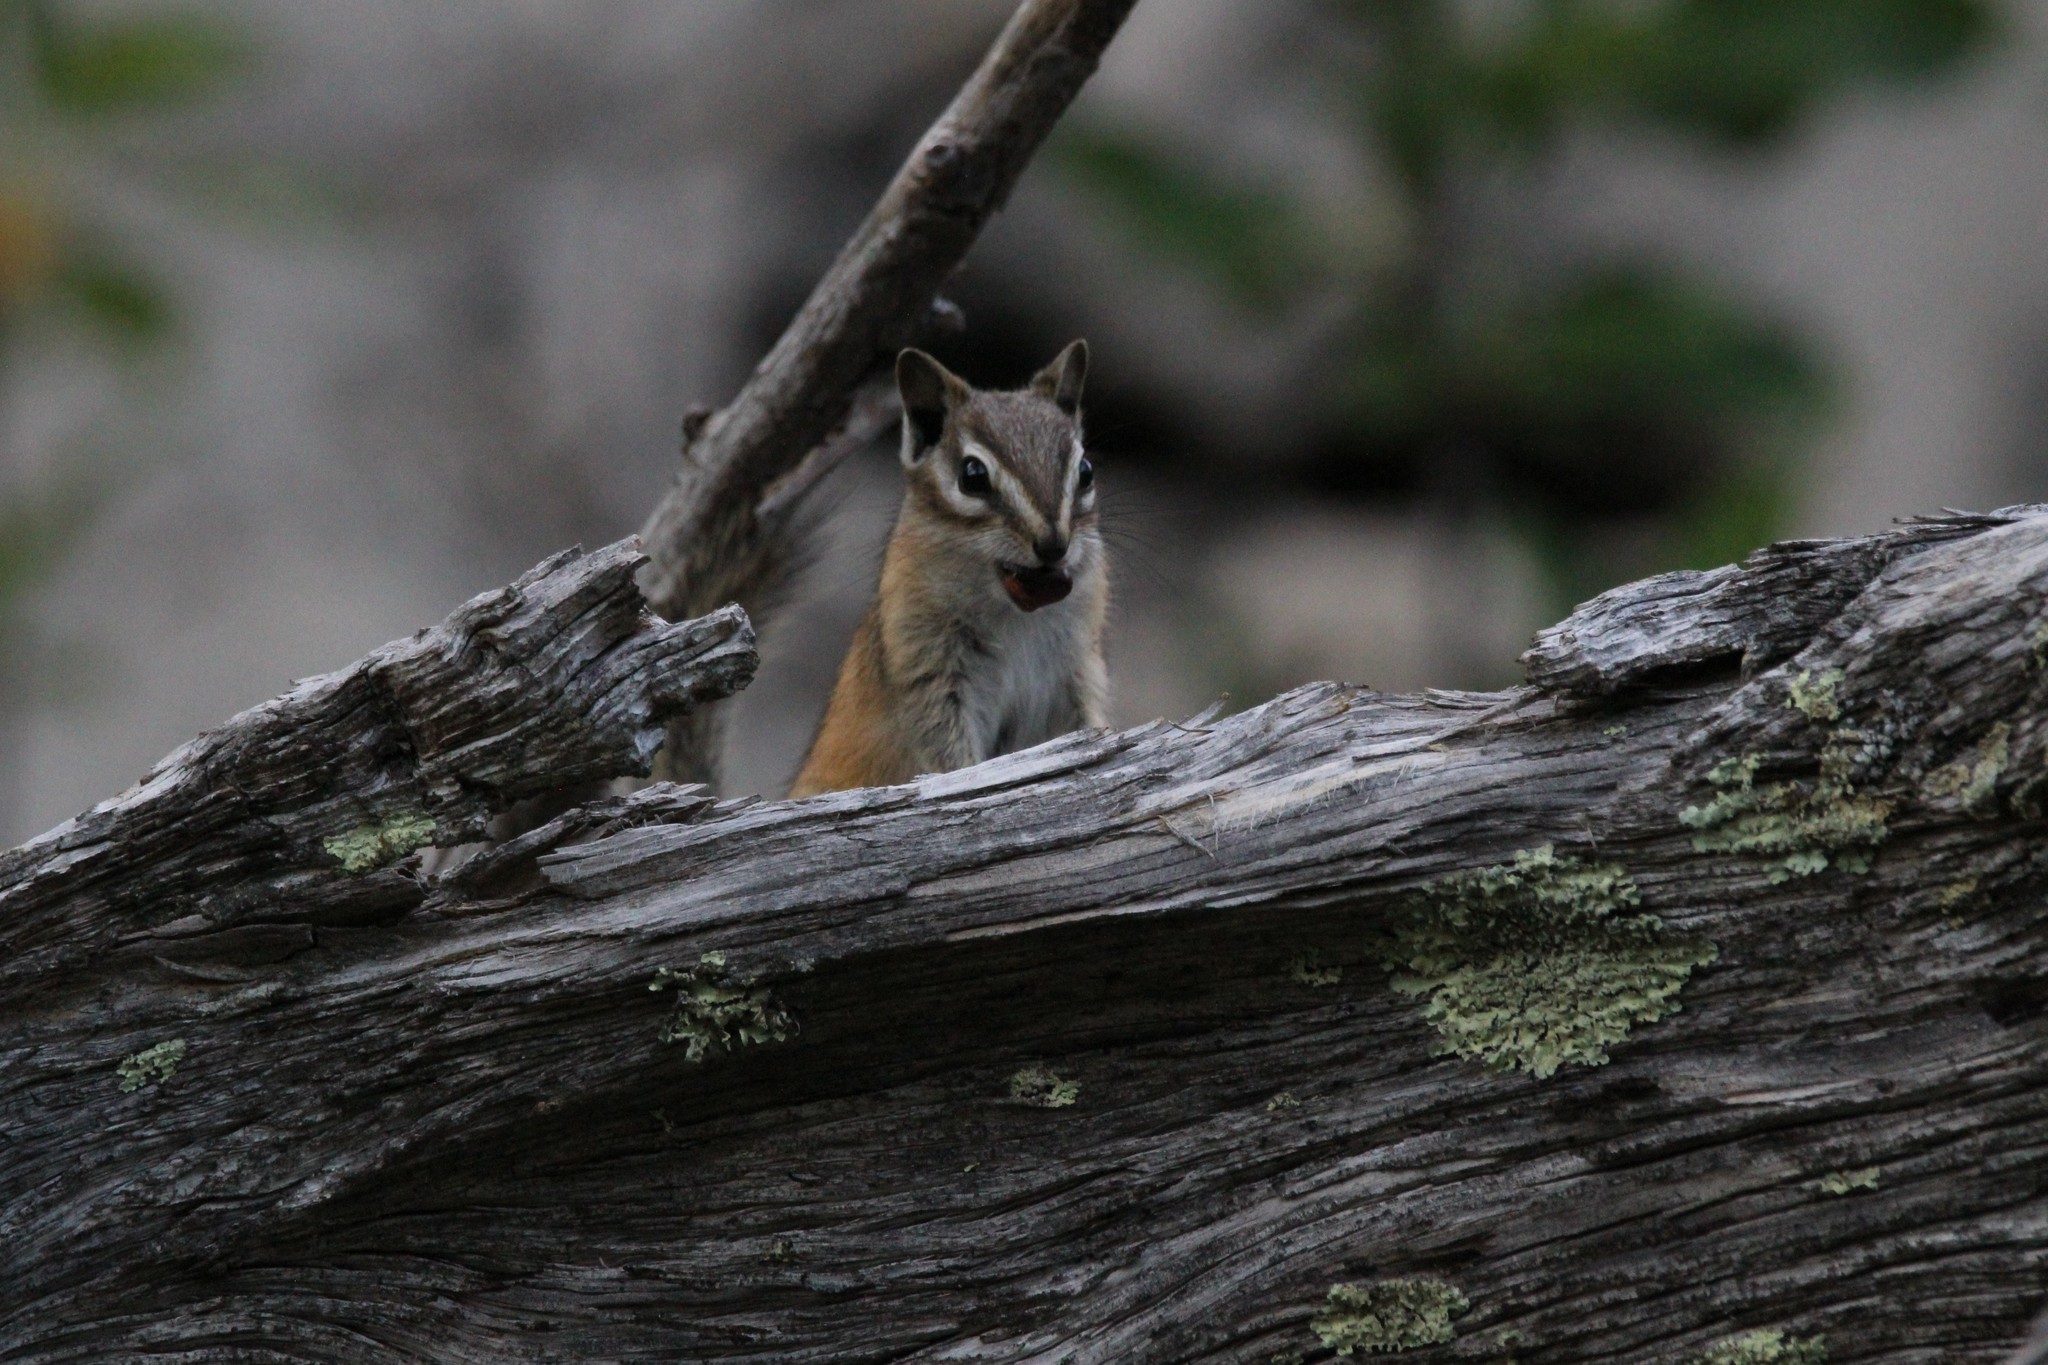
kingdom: Animalia
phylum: Chordata
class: Mammalia
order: Rodentia
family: Sciuridae
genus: Tamias
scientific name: Tamias minimus
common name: Least chipmunk
